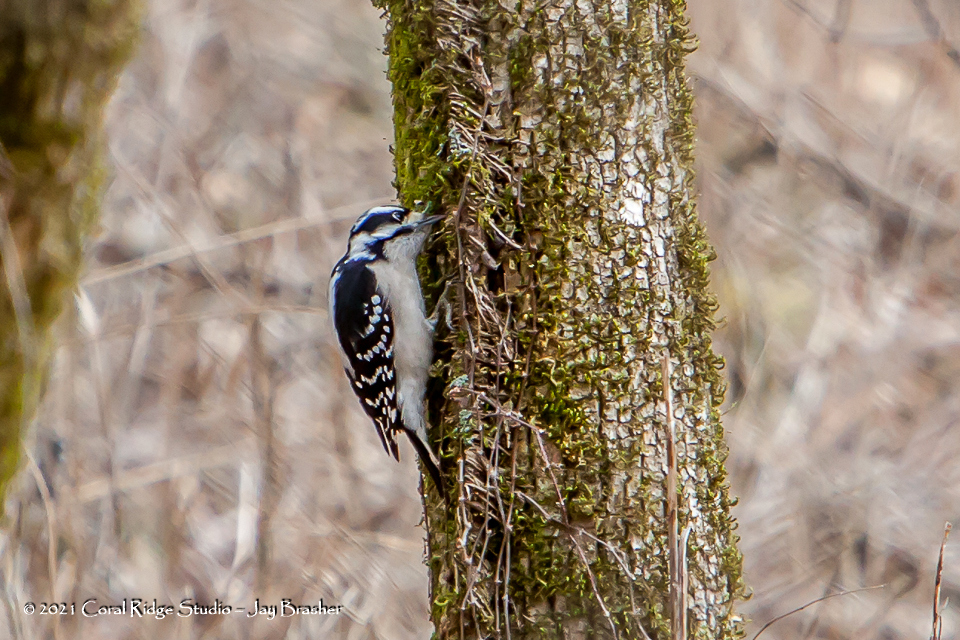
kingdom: Animalia
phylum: Chordata
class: Aves
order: Piciformes
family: Picidae
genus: Dryobates
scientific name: Dryobates pubescens
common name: Downy woodpecker
